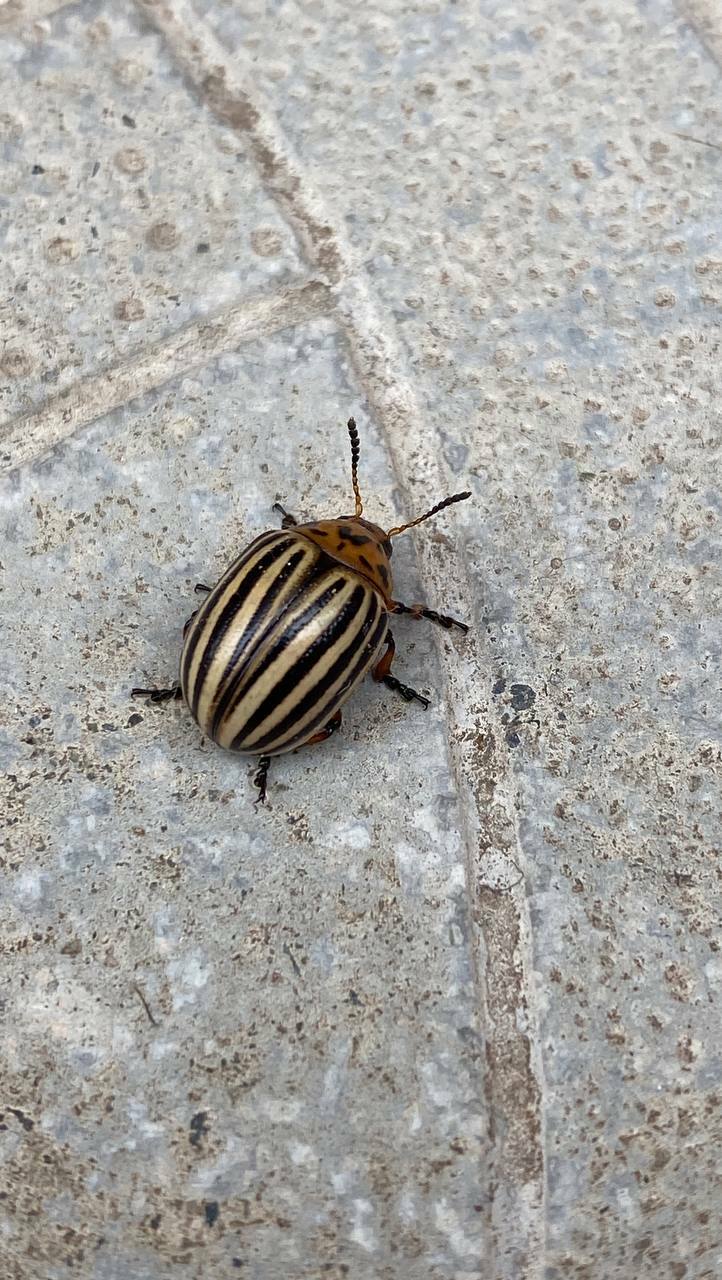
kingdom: Animalia
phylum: Arthropoda
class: Insecta
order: Coleoptera
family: Chrysomelidae
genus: Leptinotarsa
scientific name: Leptinotarsa decemlineata
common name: Colorado potato beetle
